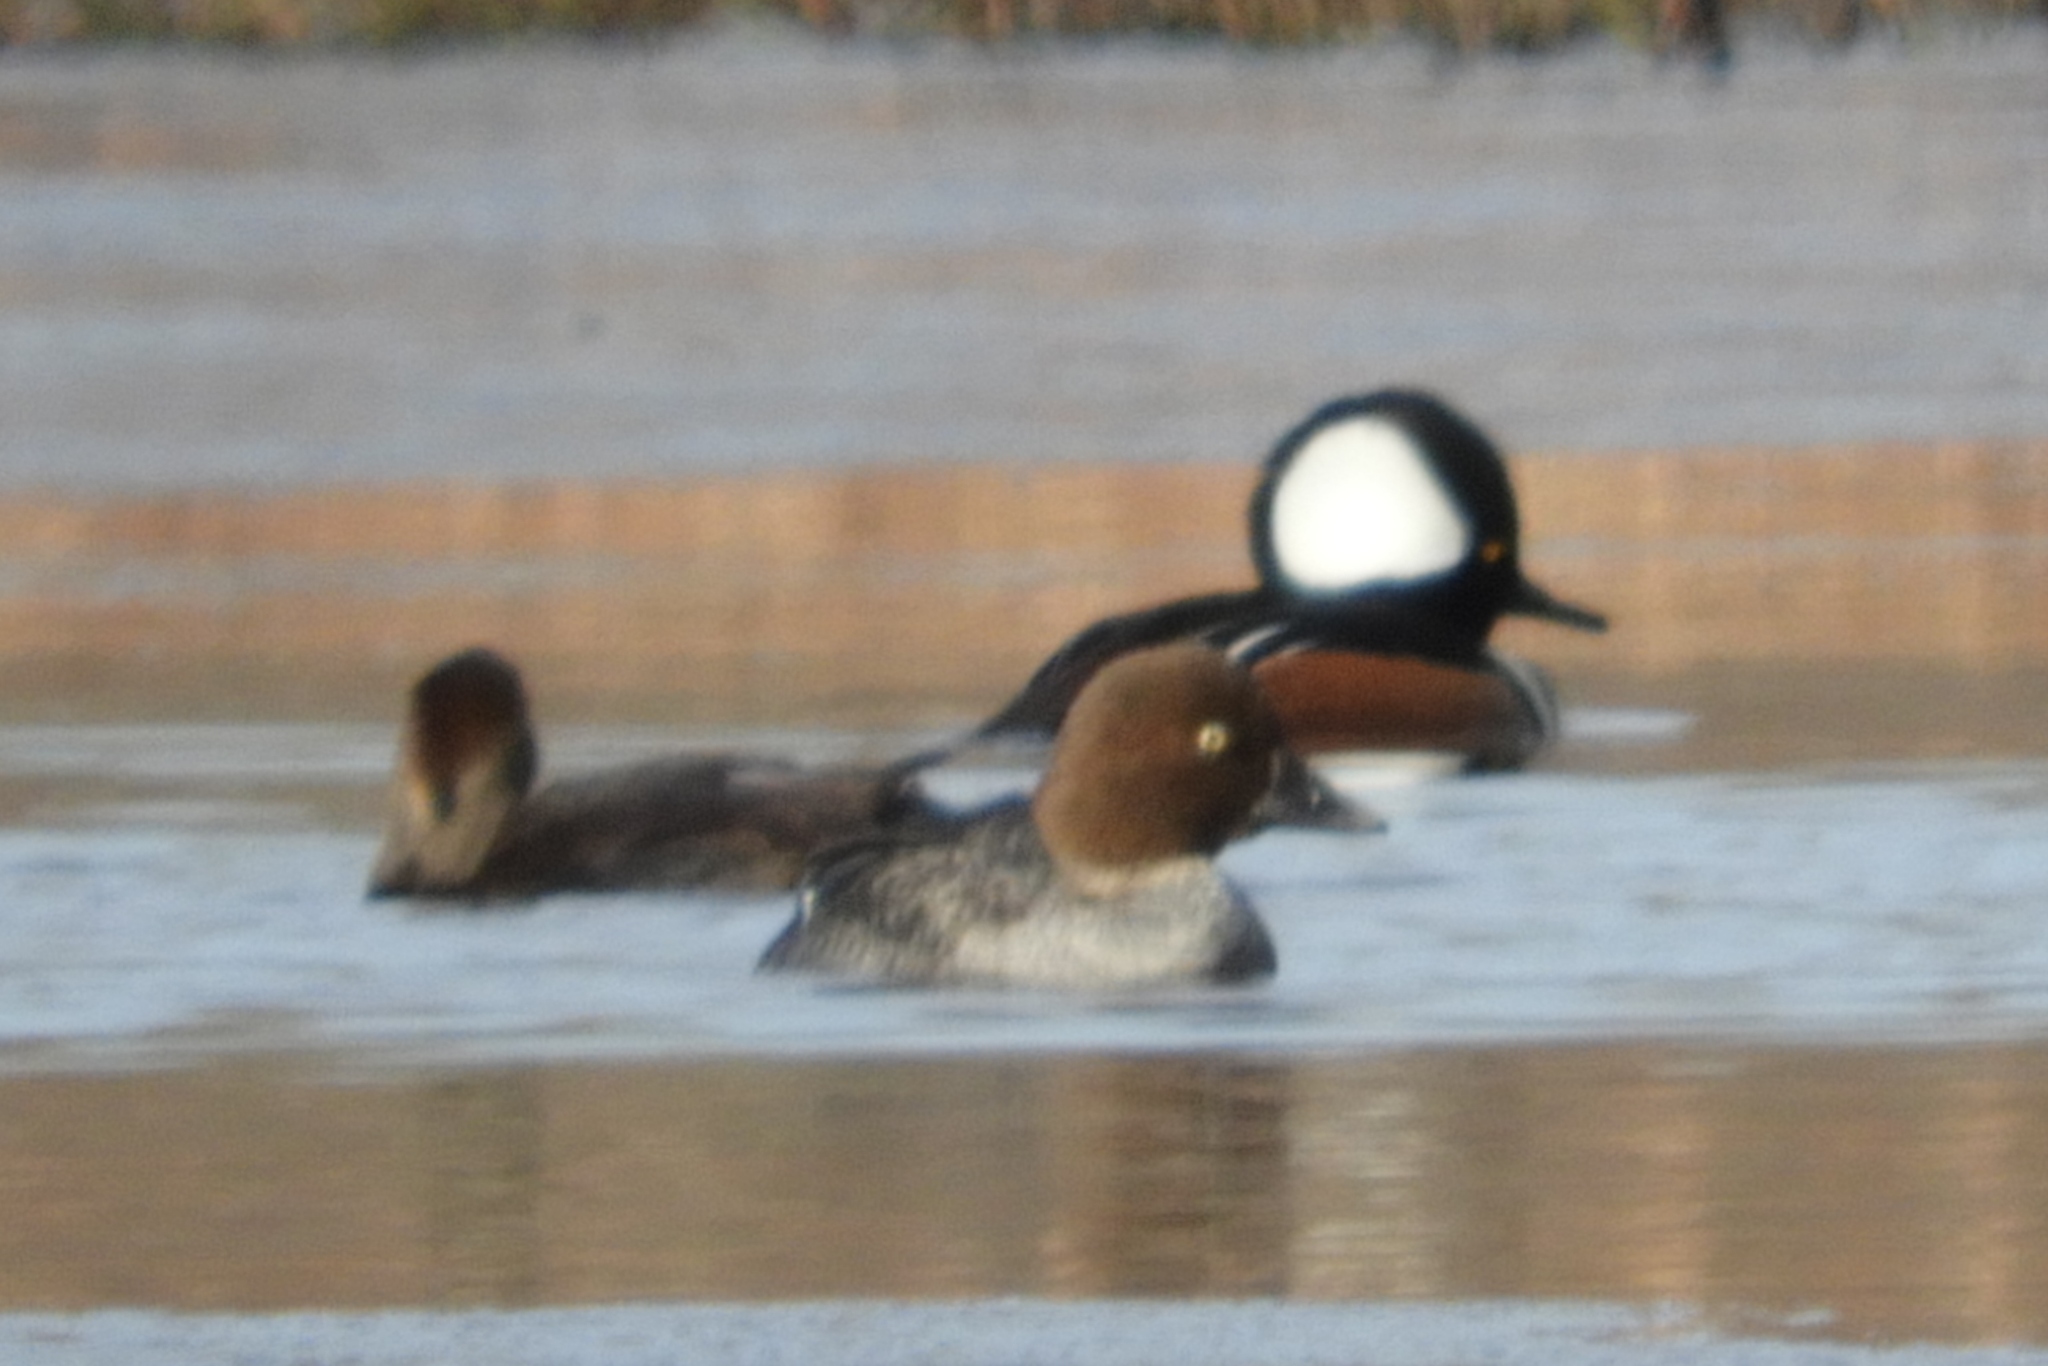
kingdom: Animalia
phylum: Chordata
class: Aves
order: Anseriformes
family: Anatidae
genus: Bucephala
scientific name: Bucephala clangula
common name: Common goldeneye
